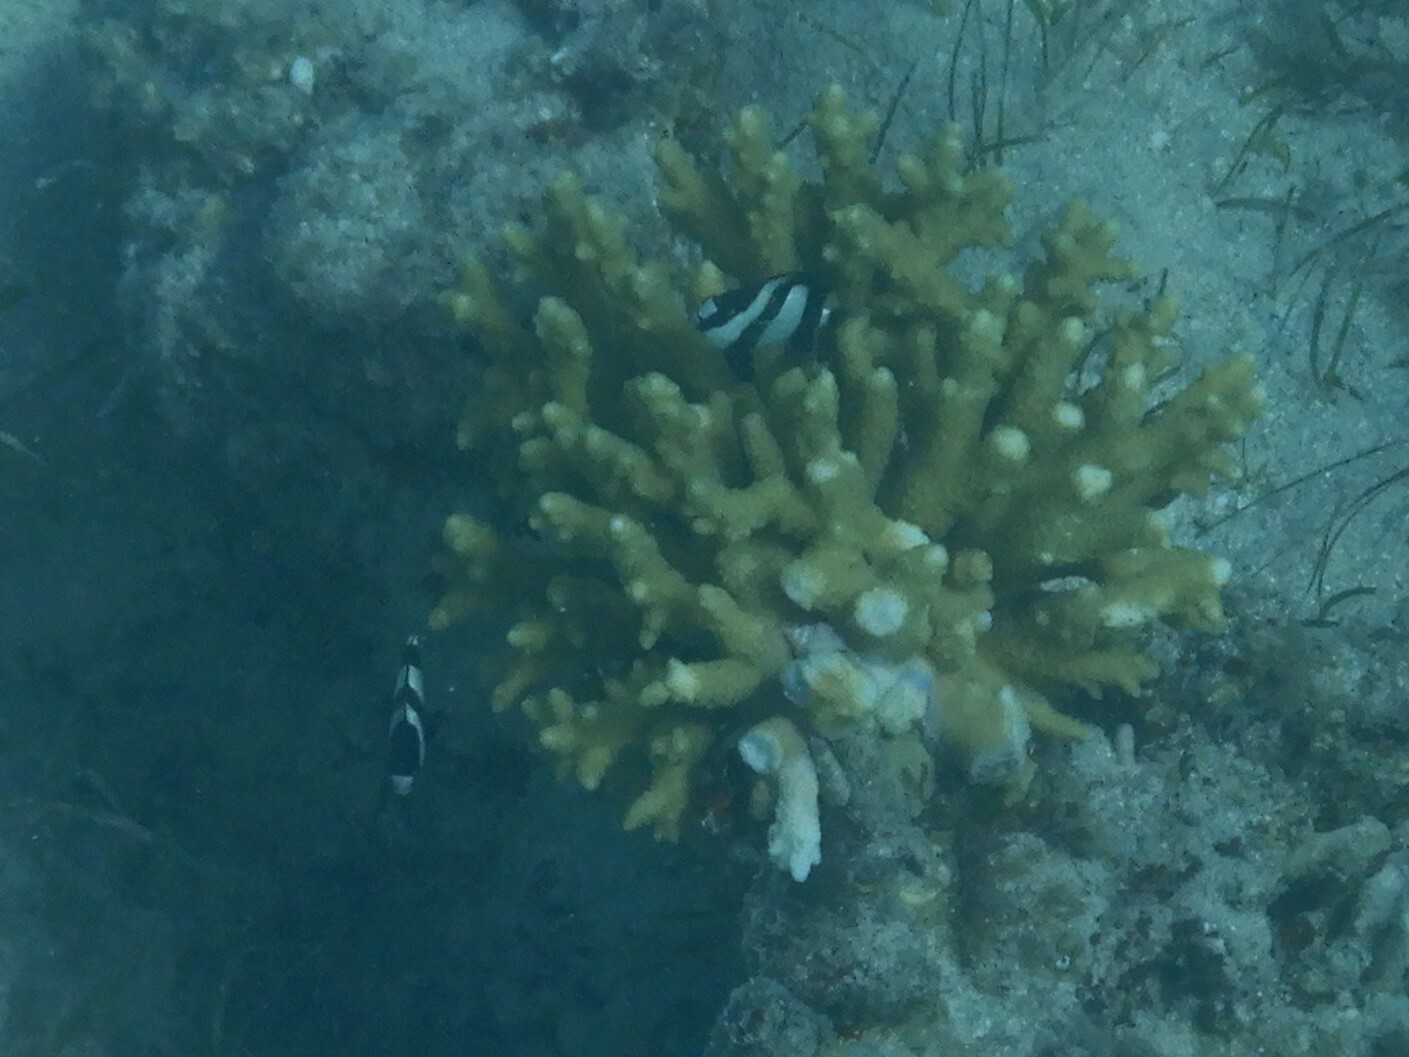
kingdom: Animalia
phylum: Chordata
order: Perciformes
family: Pomacentridae
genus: Dascyllus
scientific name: Dascyllus abudafur
